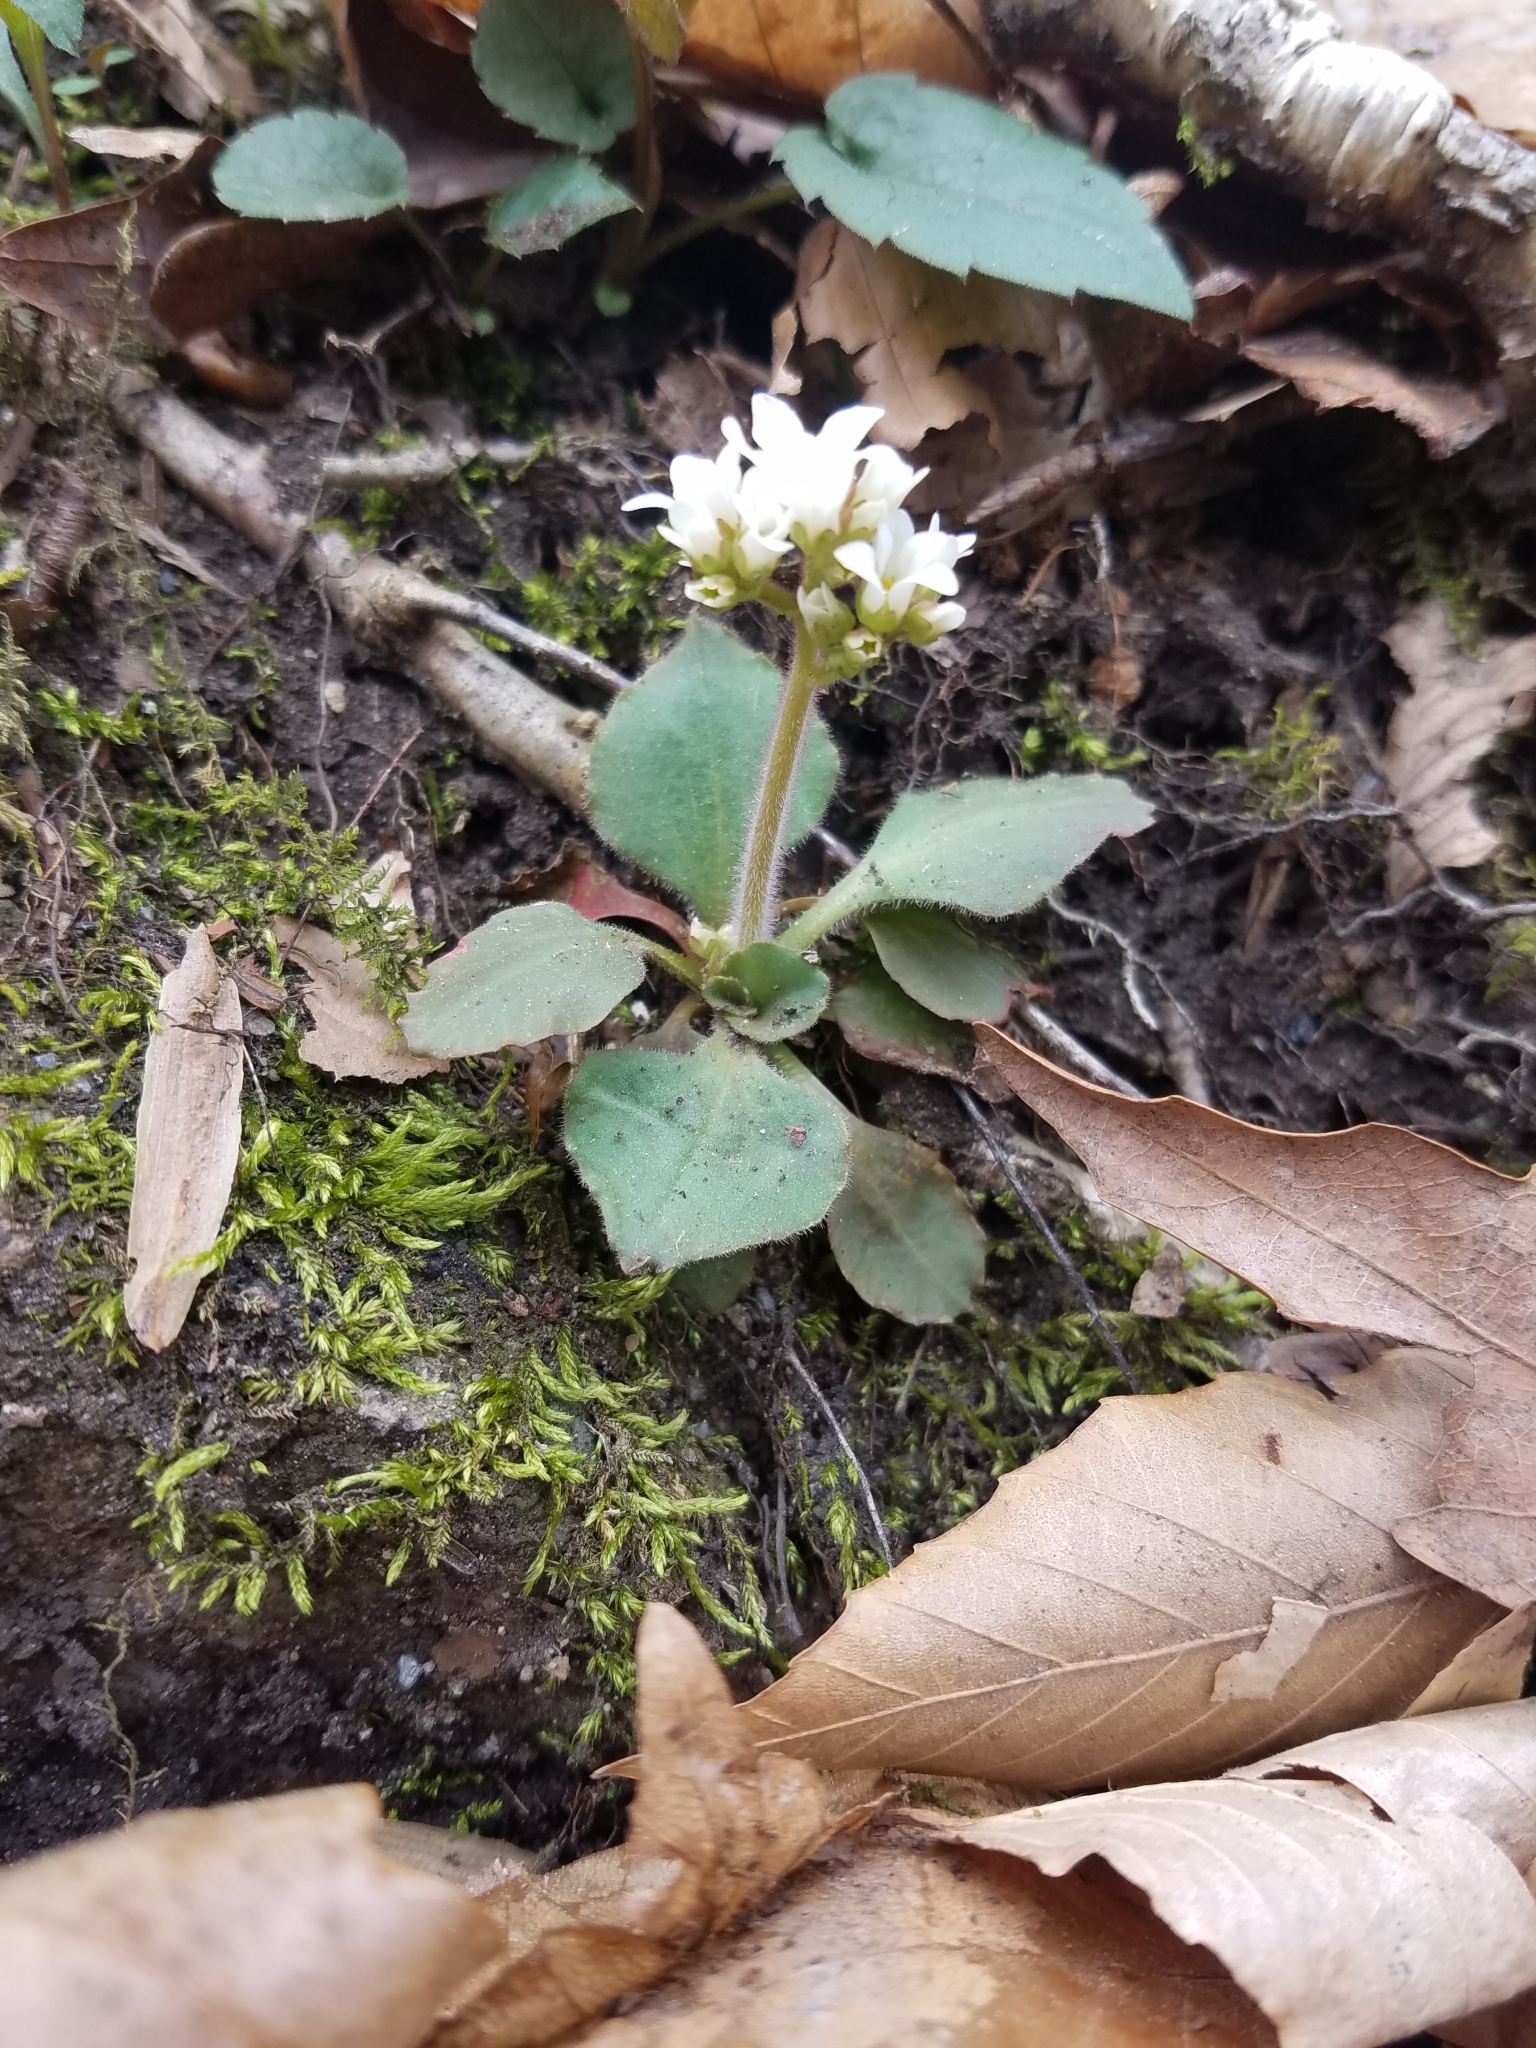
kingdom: Plantae
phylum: Tracheophyta
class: Magnoliopsida
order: Saxifragales
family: Saxifragaceae
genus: Micranthes
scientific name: Micranthes virginiensis
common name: Early saxifrage
